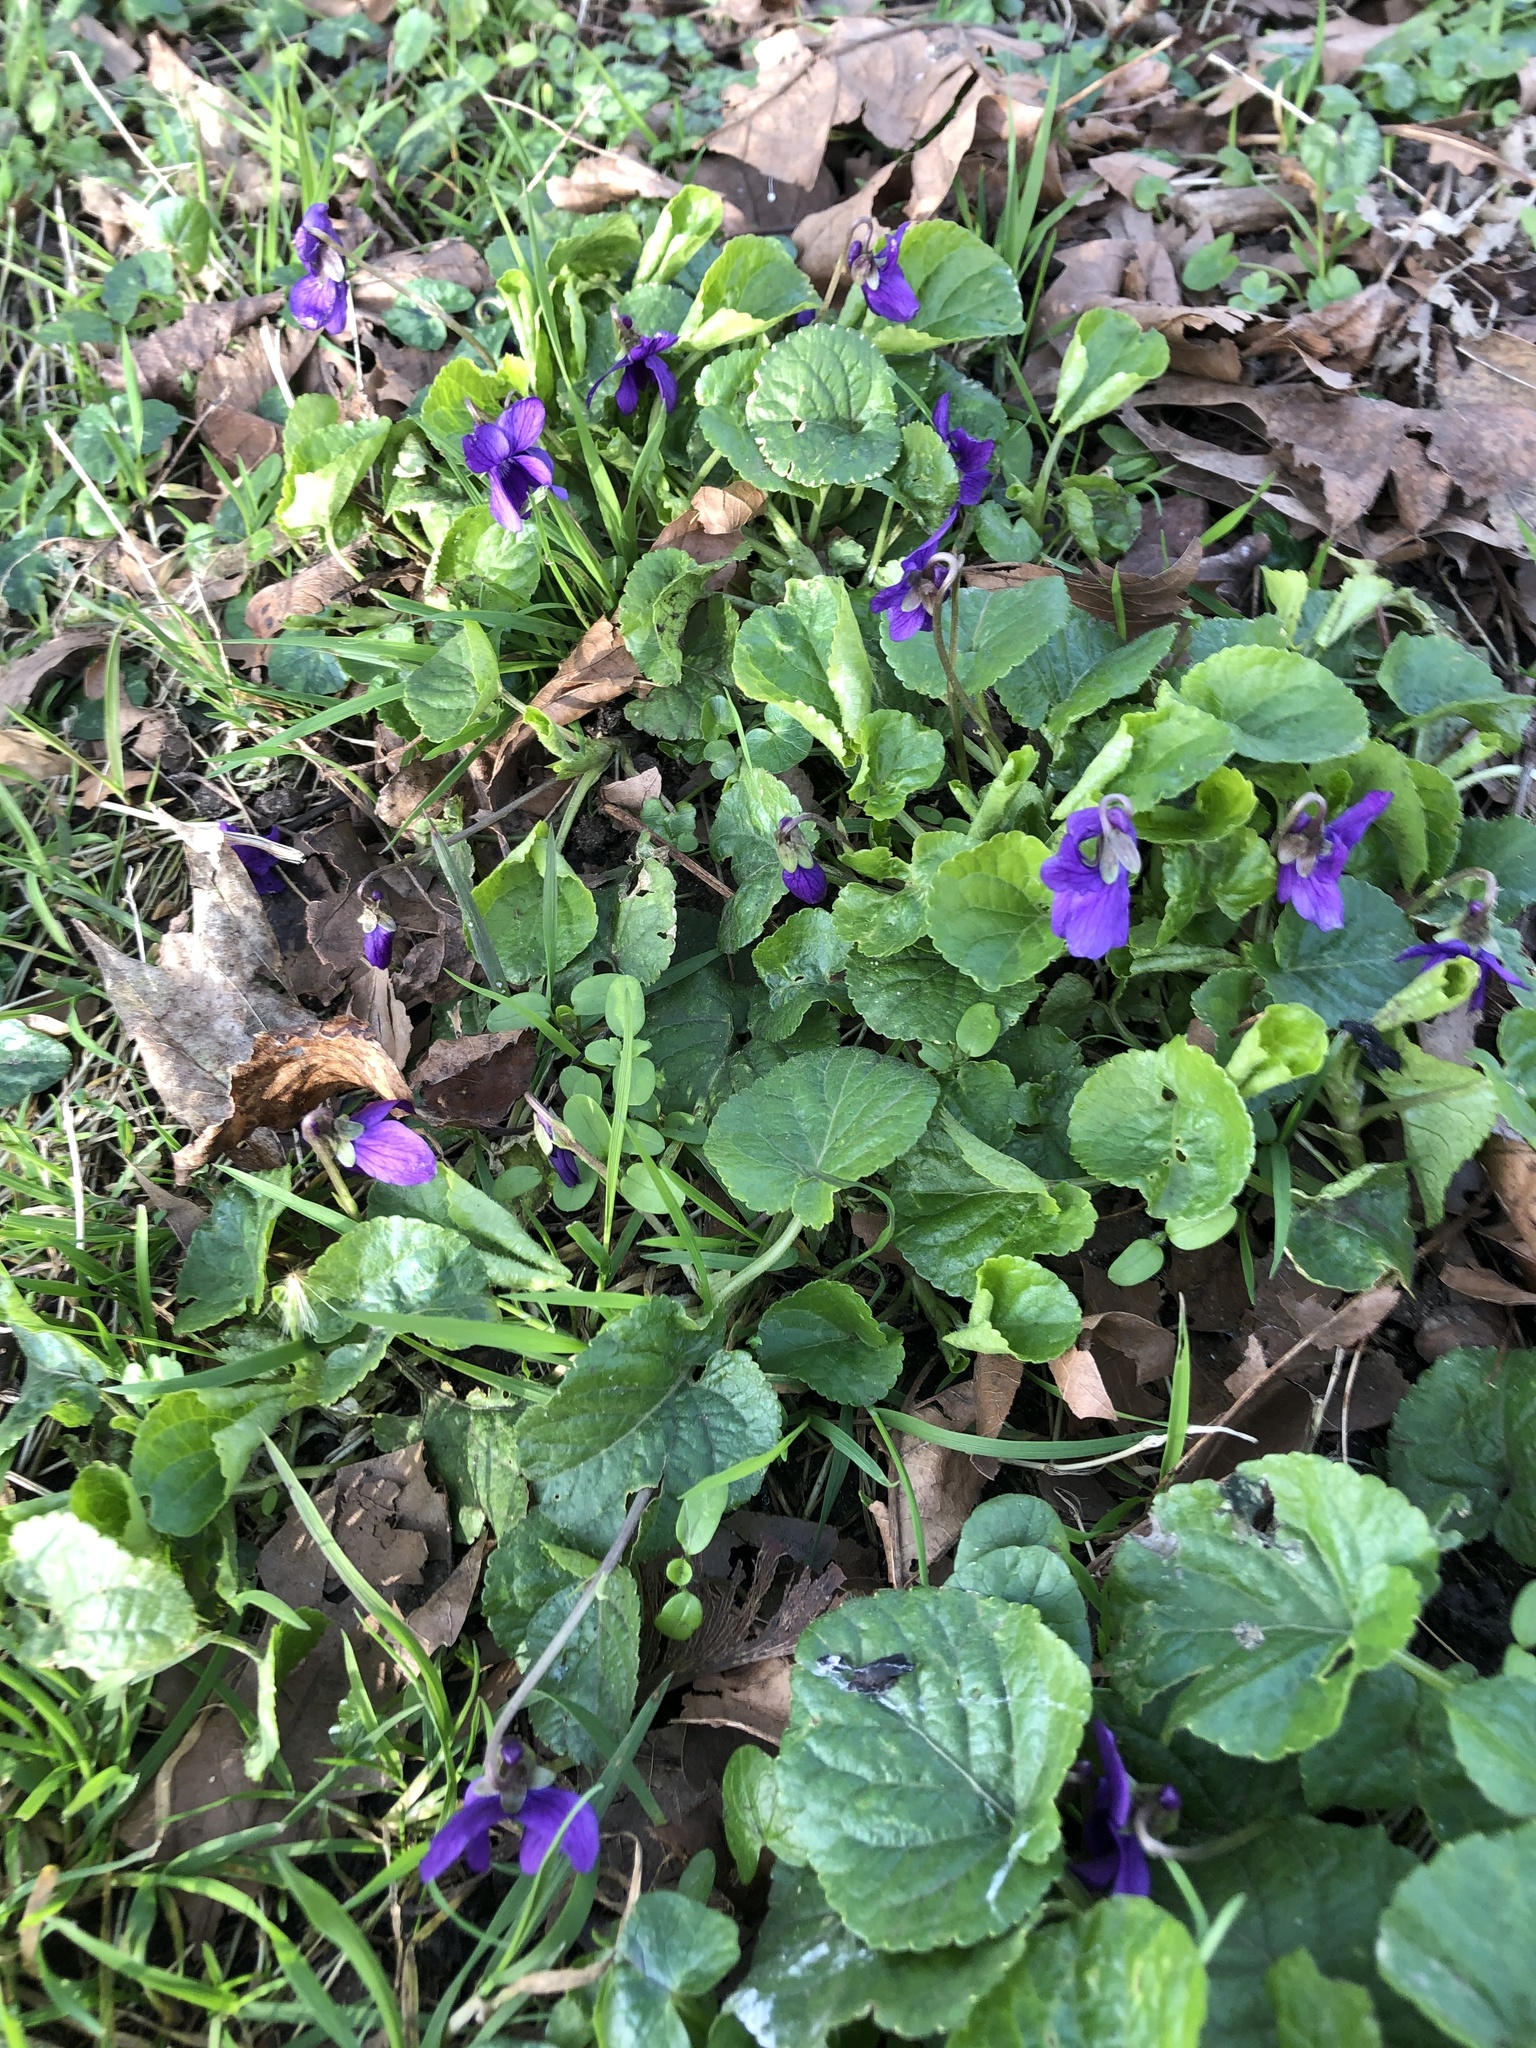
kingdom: Plantae
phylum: Tracheophyta
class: Magnoliopsida
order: Malpighiales
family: Violaceae
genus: Viola
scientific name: Viola odorata
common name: Sweet violet
